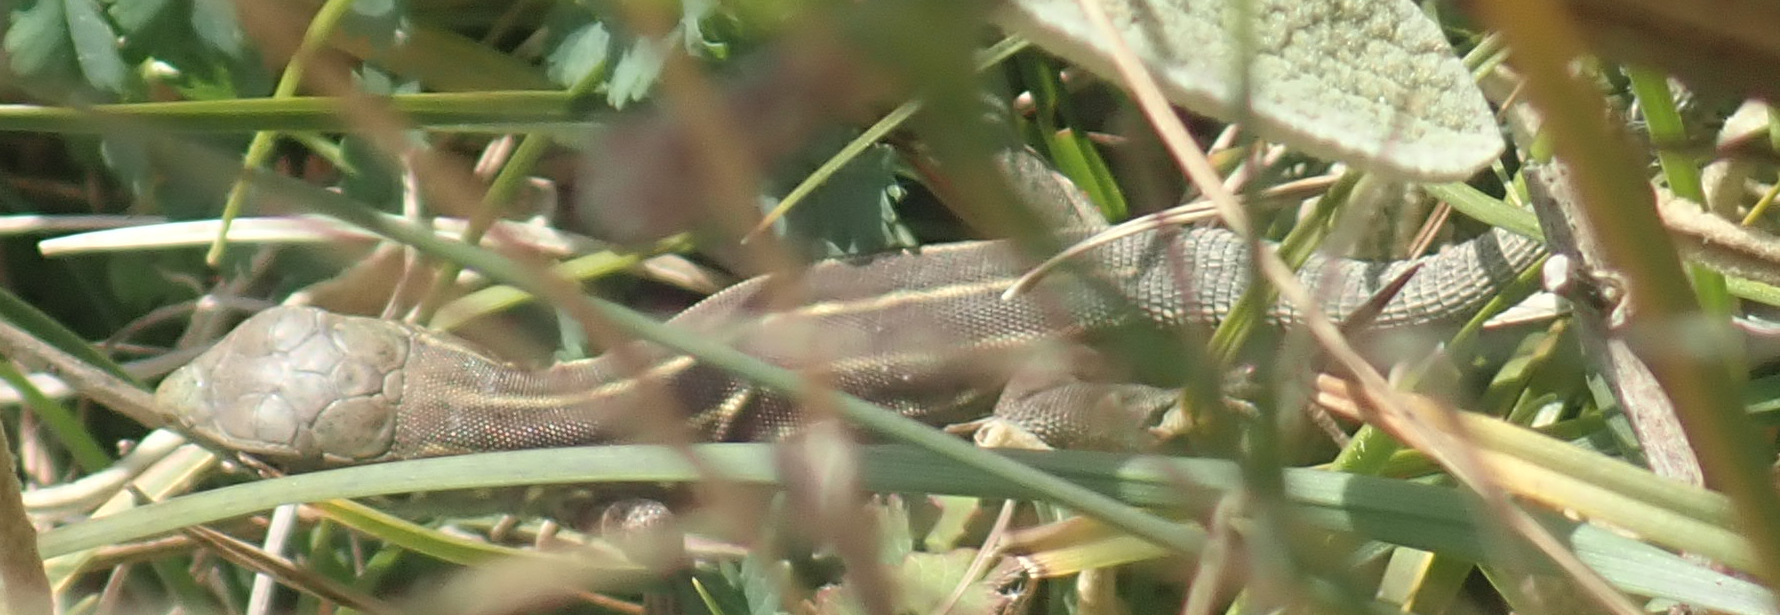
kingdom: Animalia
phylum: Chordata
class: Squamata
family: Lacertidae
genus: Lacerta
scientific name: Lacerta trilineata
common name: Balkan green lizard
